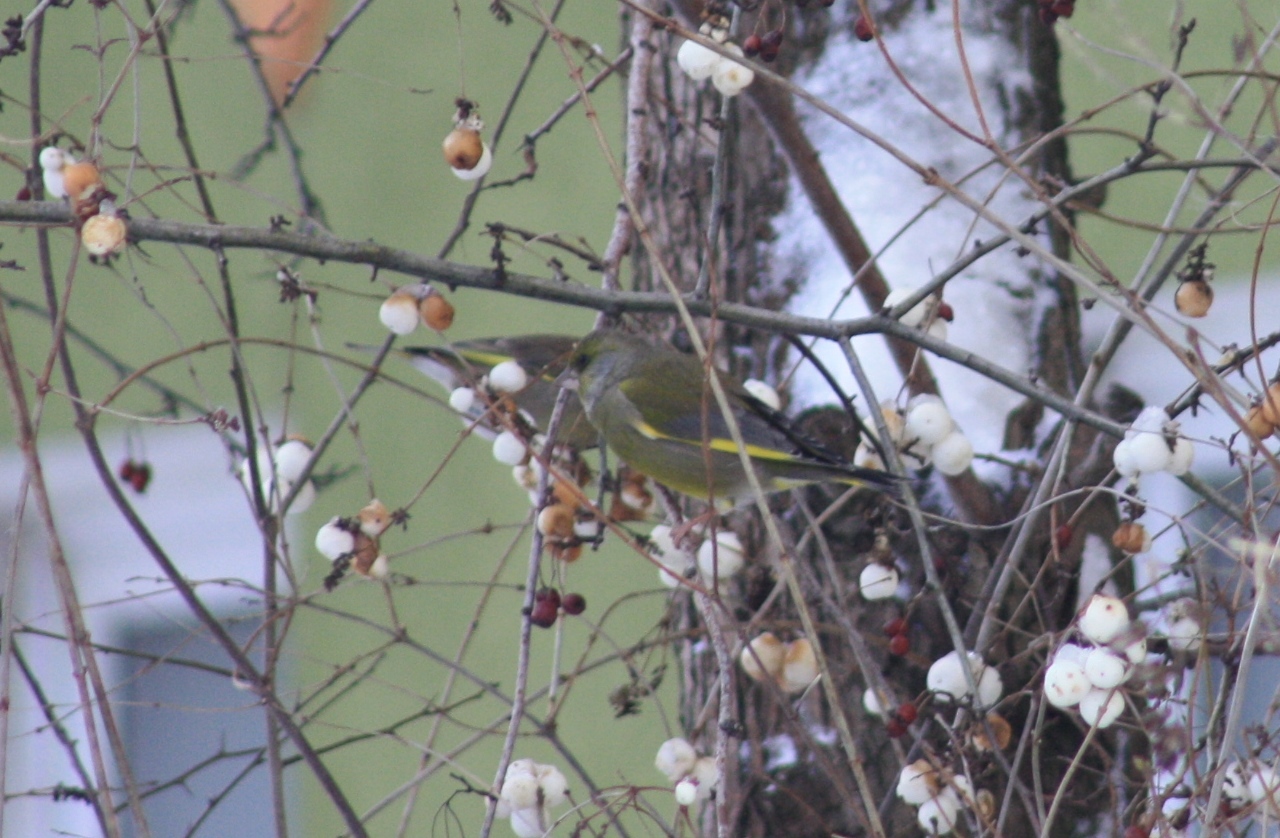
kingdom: Plantae
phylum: Tracheophyta
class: Liliopsida
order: Poales
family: Poaceae
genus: Chloris
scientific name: Chloris chloris
